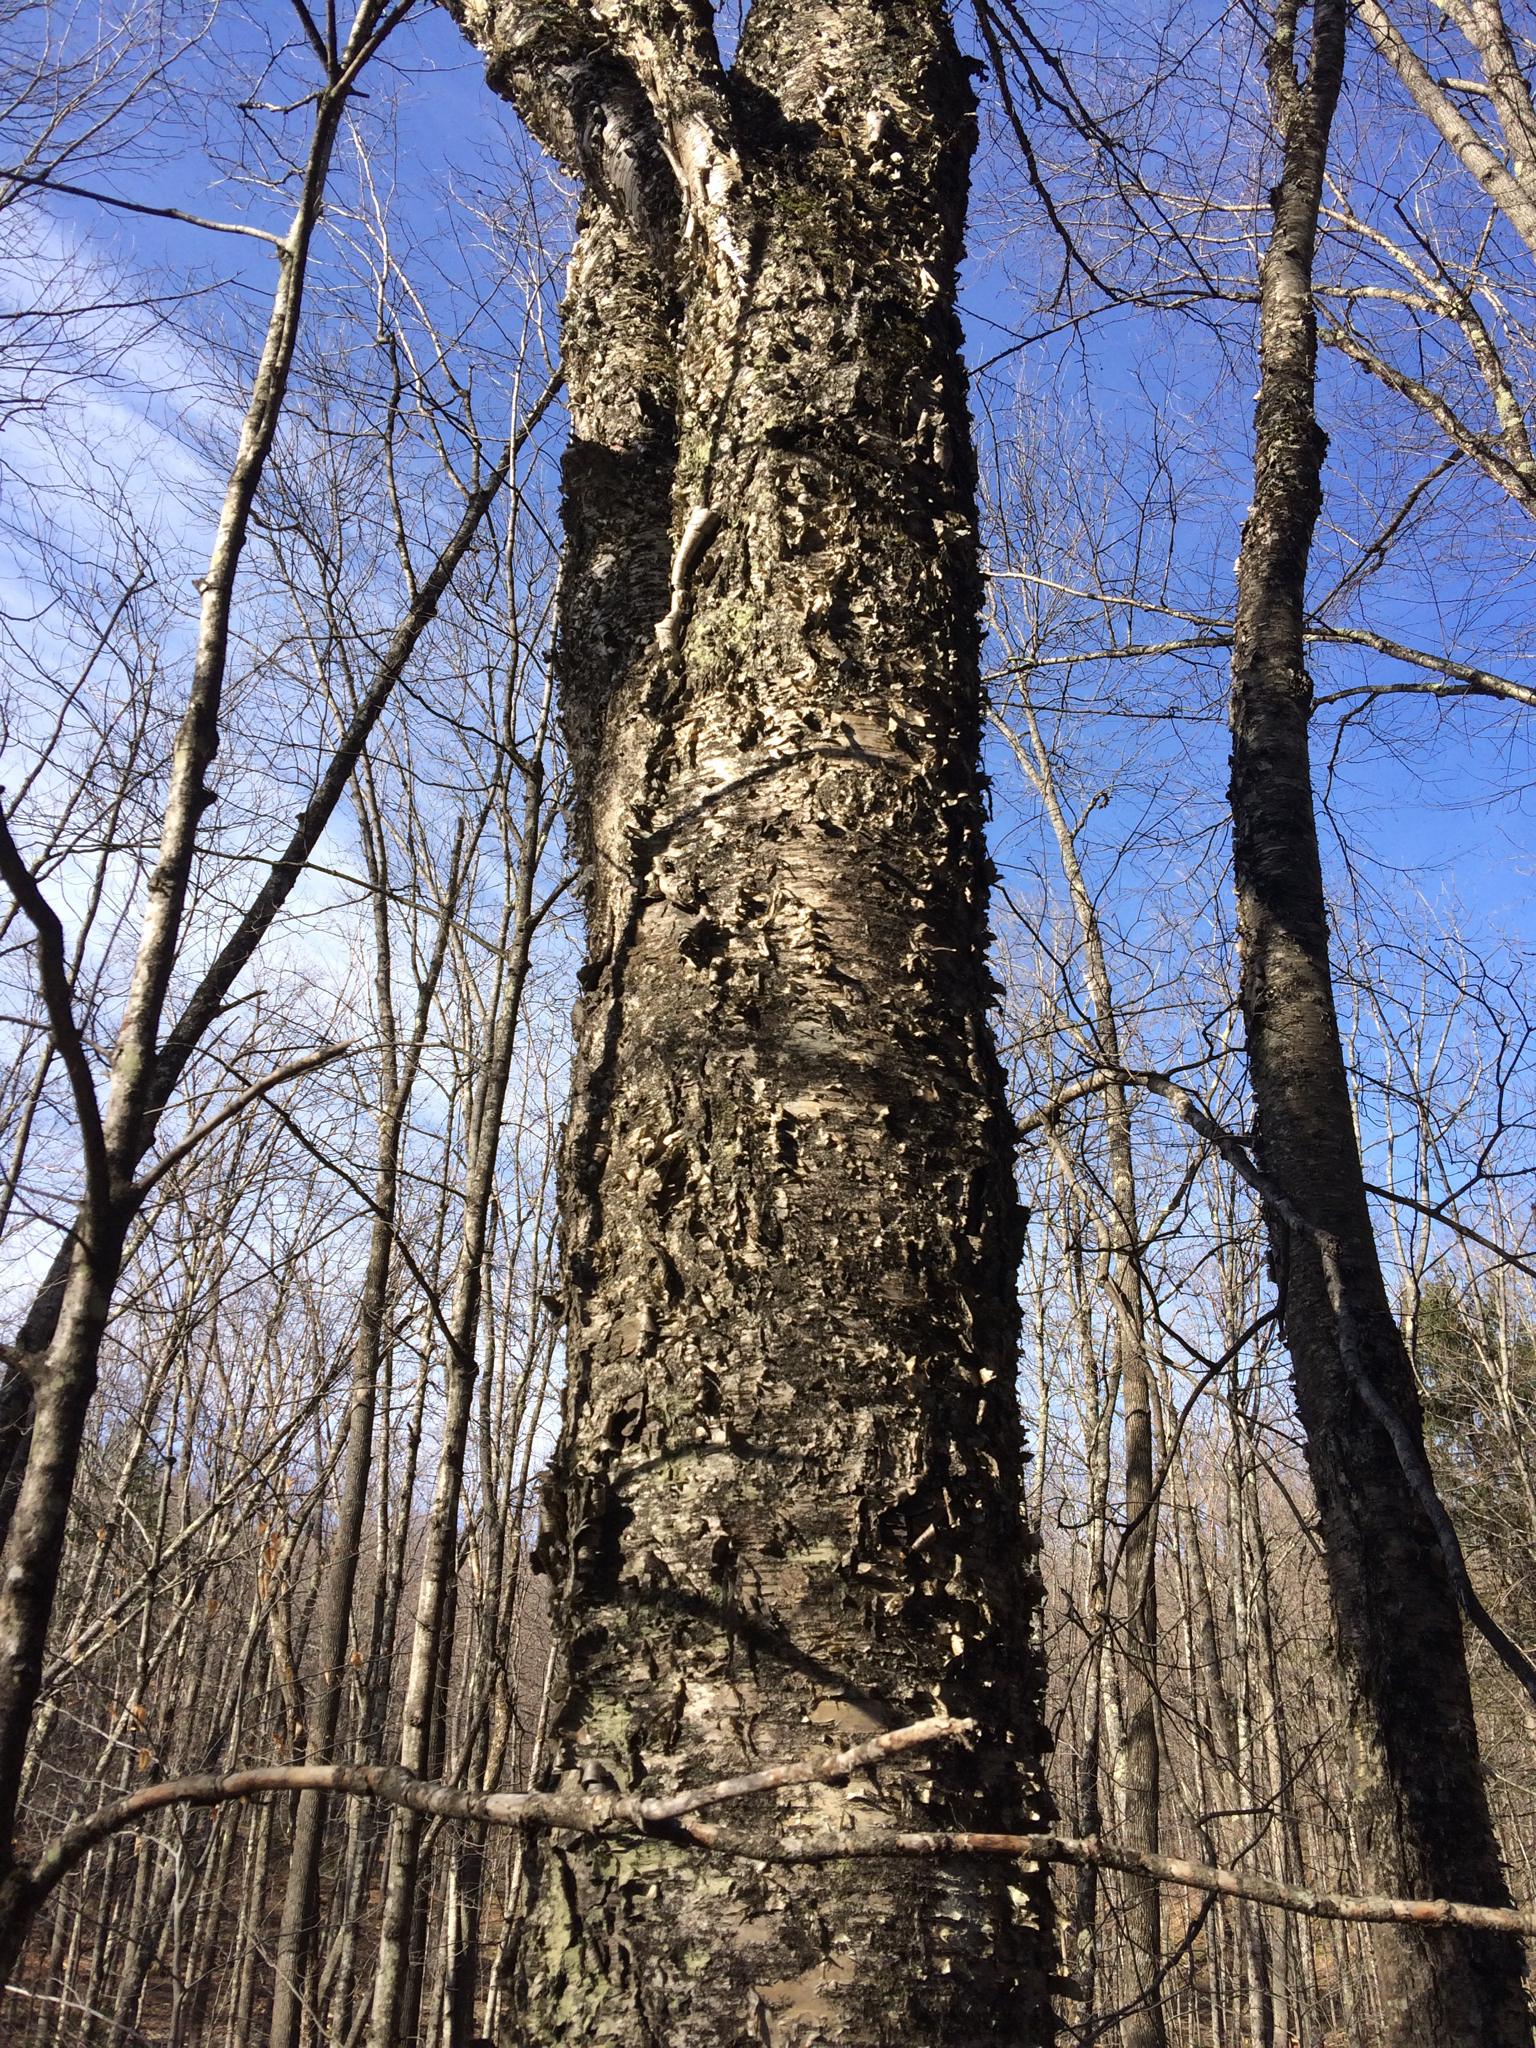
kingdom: Plantae
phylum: Tracheophyta
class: Magnoliopsida
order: Fagales
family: Betulaceae
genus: Betula
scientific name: Betula alleghaniensis
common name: Yellow birch
